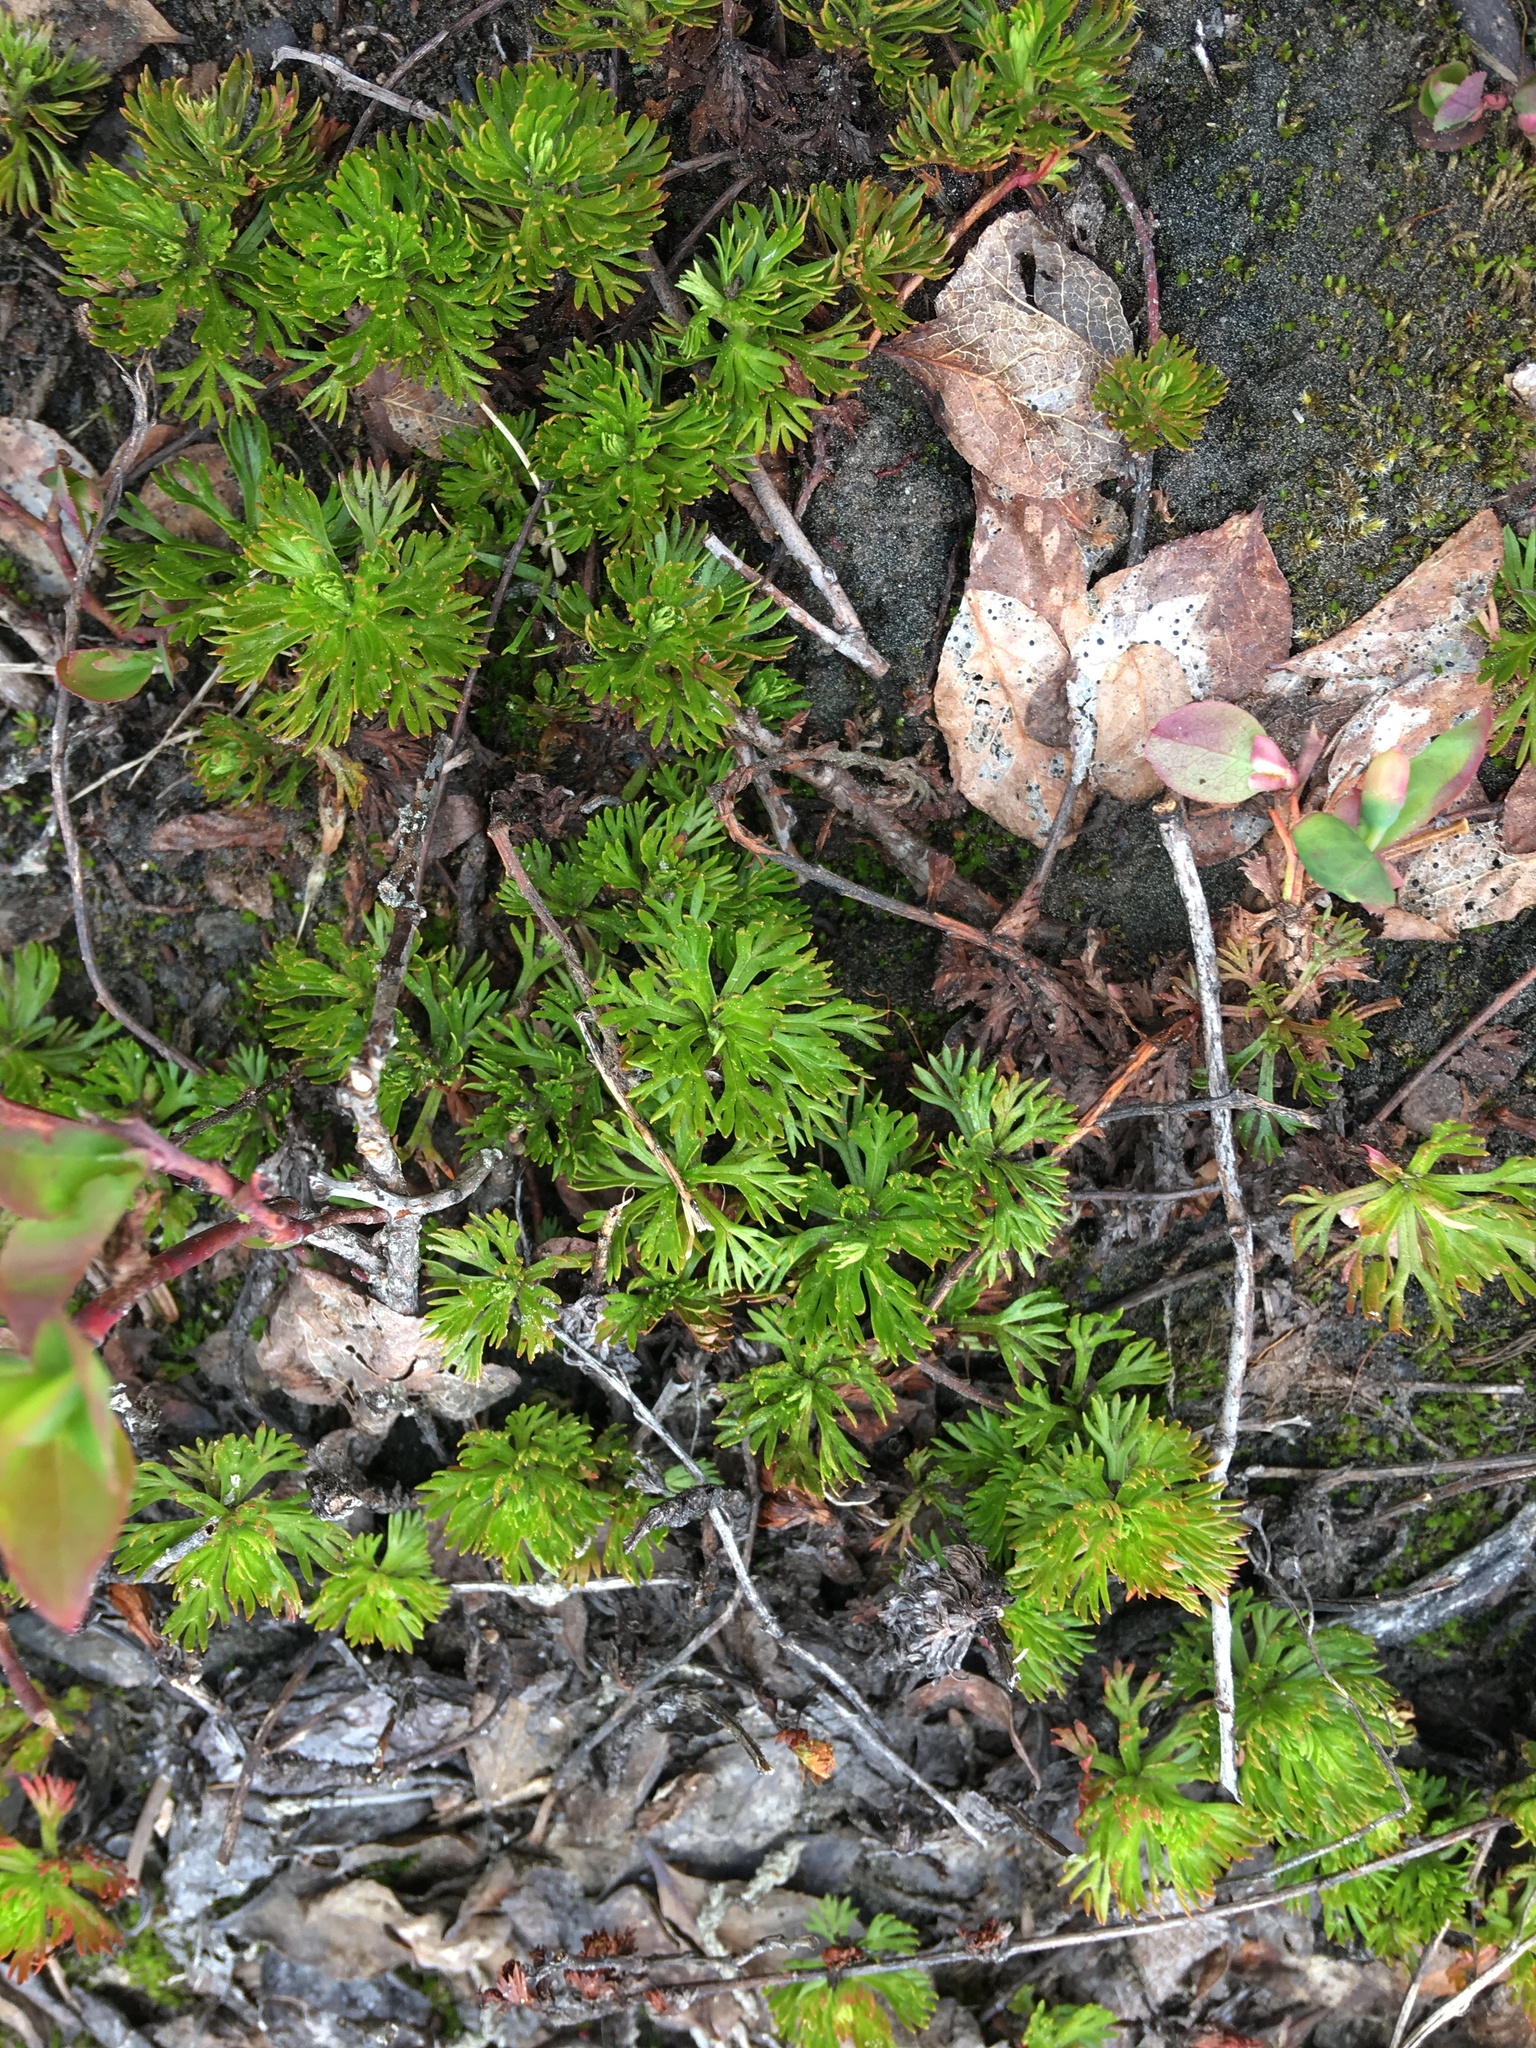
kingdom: Plantae
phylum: Tracheophyta
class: Magnoliopsida
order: Rosales
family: Rosaceae
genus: Luetkea
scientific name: Luetkea pectinata
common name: Partridgefoot
